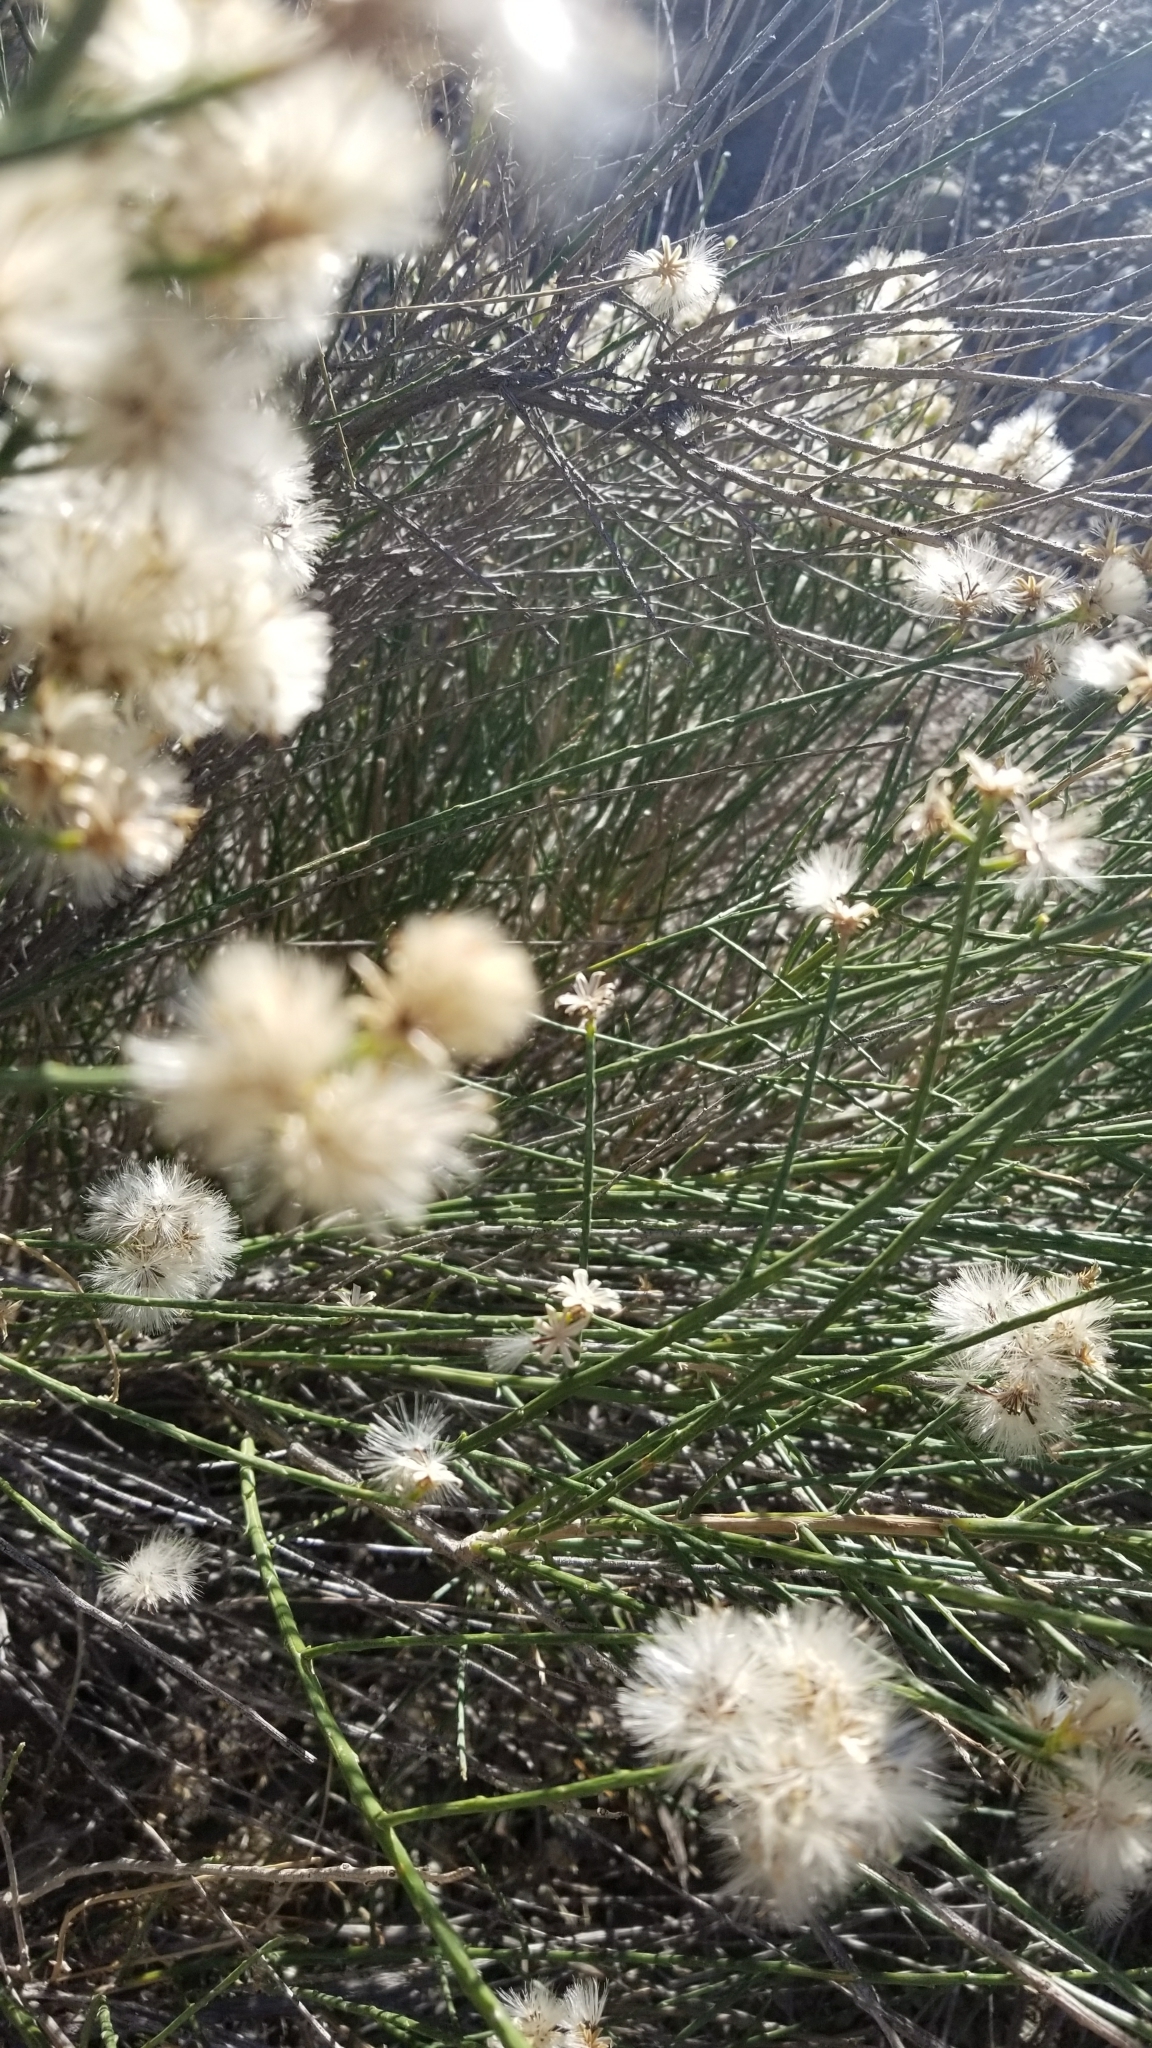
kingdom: Plantae
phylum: Tracheophyta
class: Magnoliopsida
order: Asterales
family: Asteraceae
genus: Lepidospartum
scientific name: Lepidospartum squamatum
